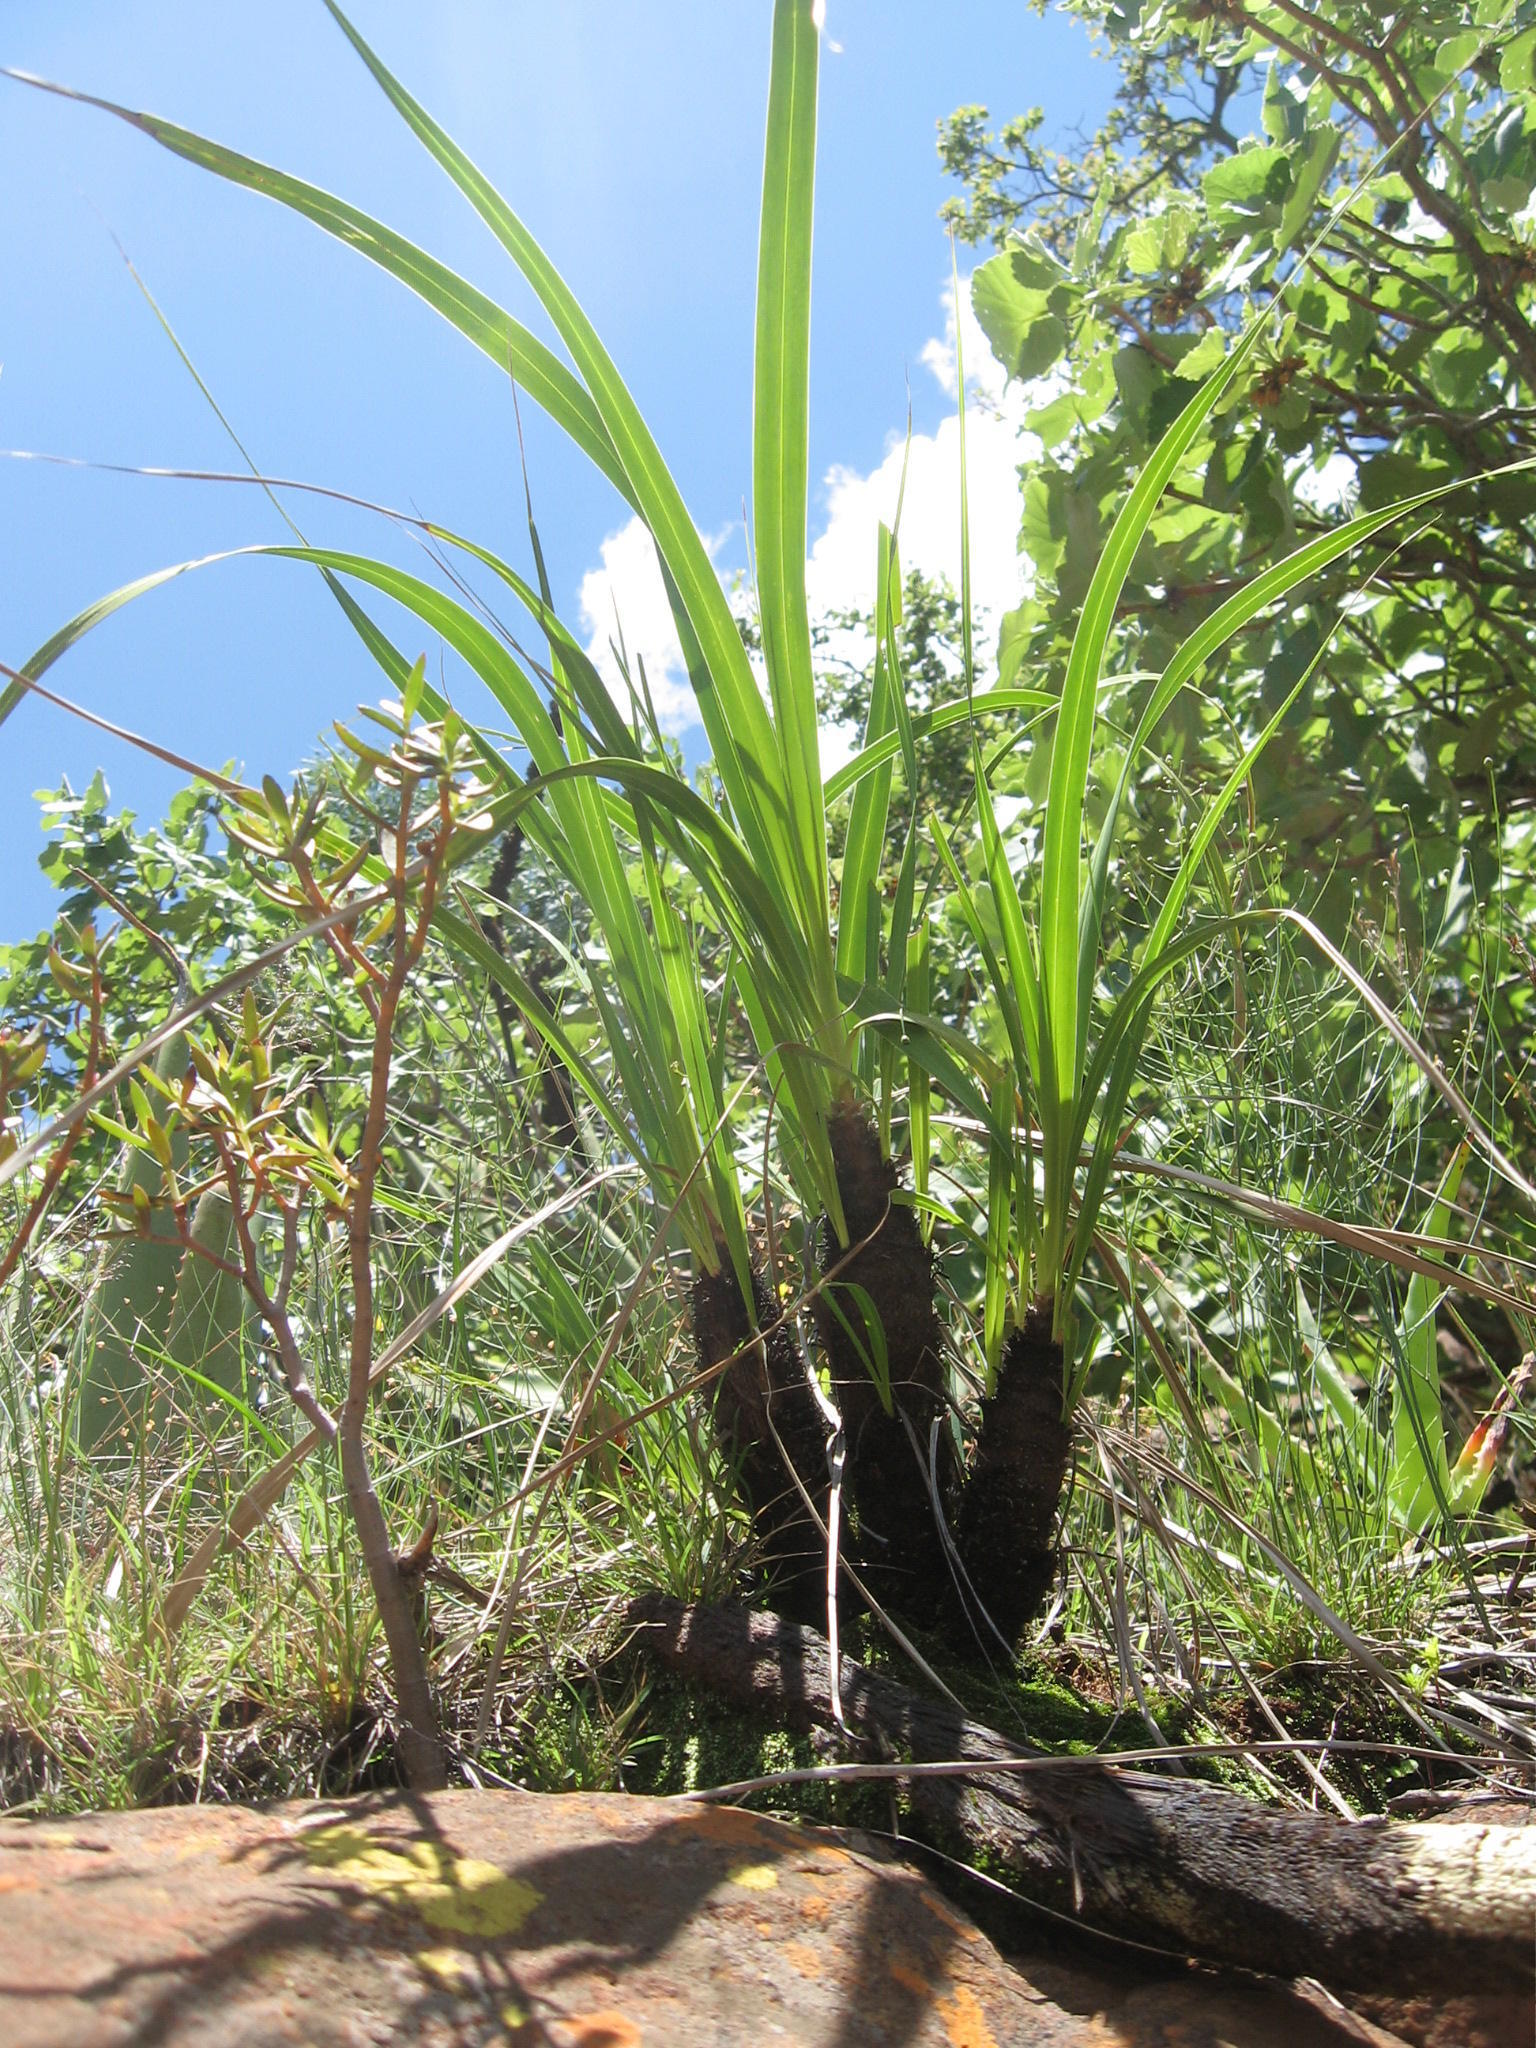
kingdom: Plantae
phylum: Tracheophyta
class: Liliopsida
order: Pandanales
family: Velloziaceae
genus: Xerophyta
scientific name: Xerophyta retinervis
